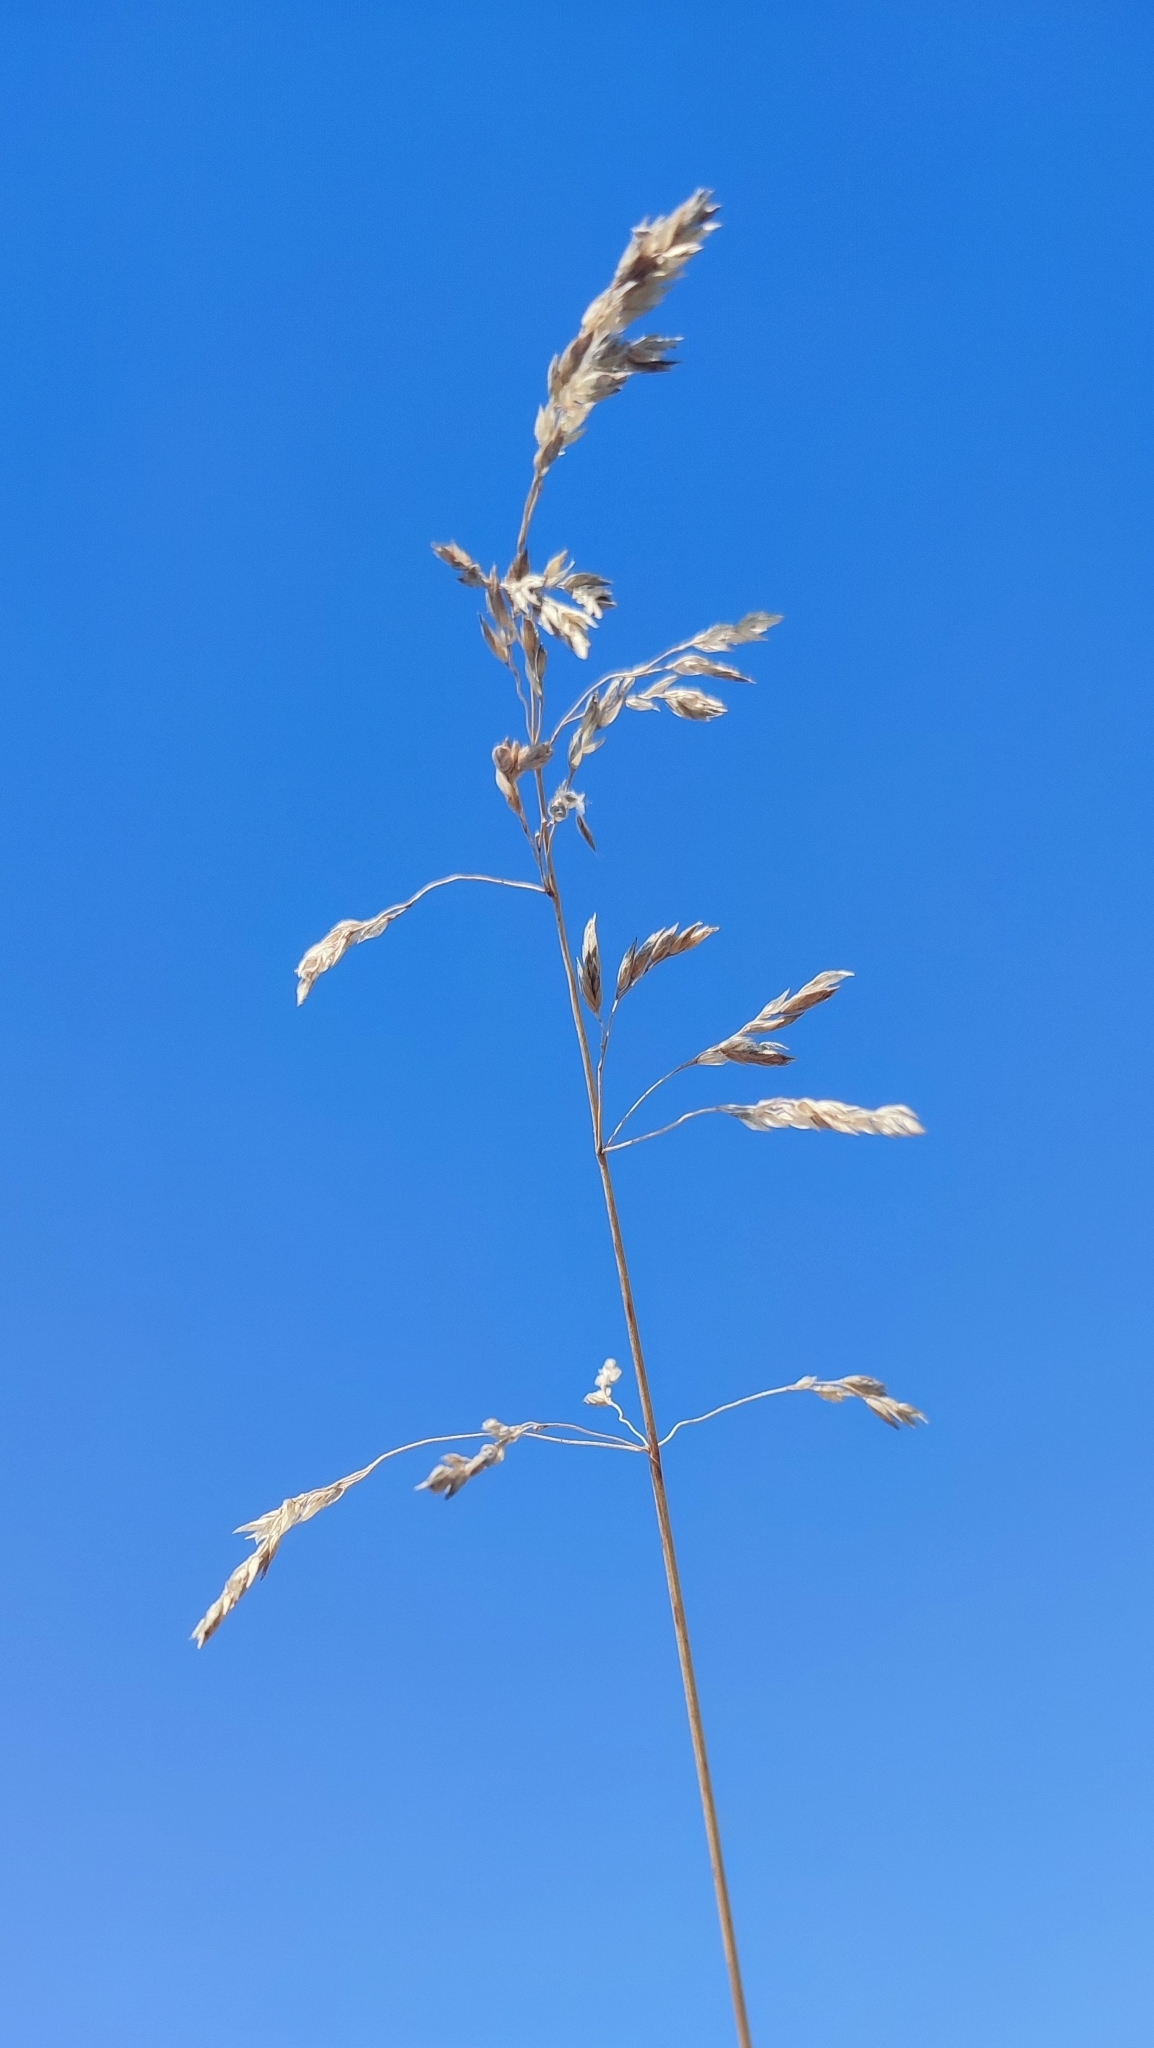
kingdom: Plantae
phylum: Tracheophyta
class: Liliopsida
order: Poales
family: Poaceae
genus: Poa
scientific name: Poa pratensis
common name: Kentucky bluegrass
